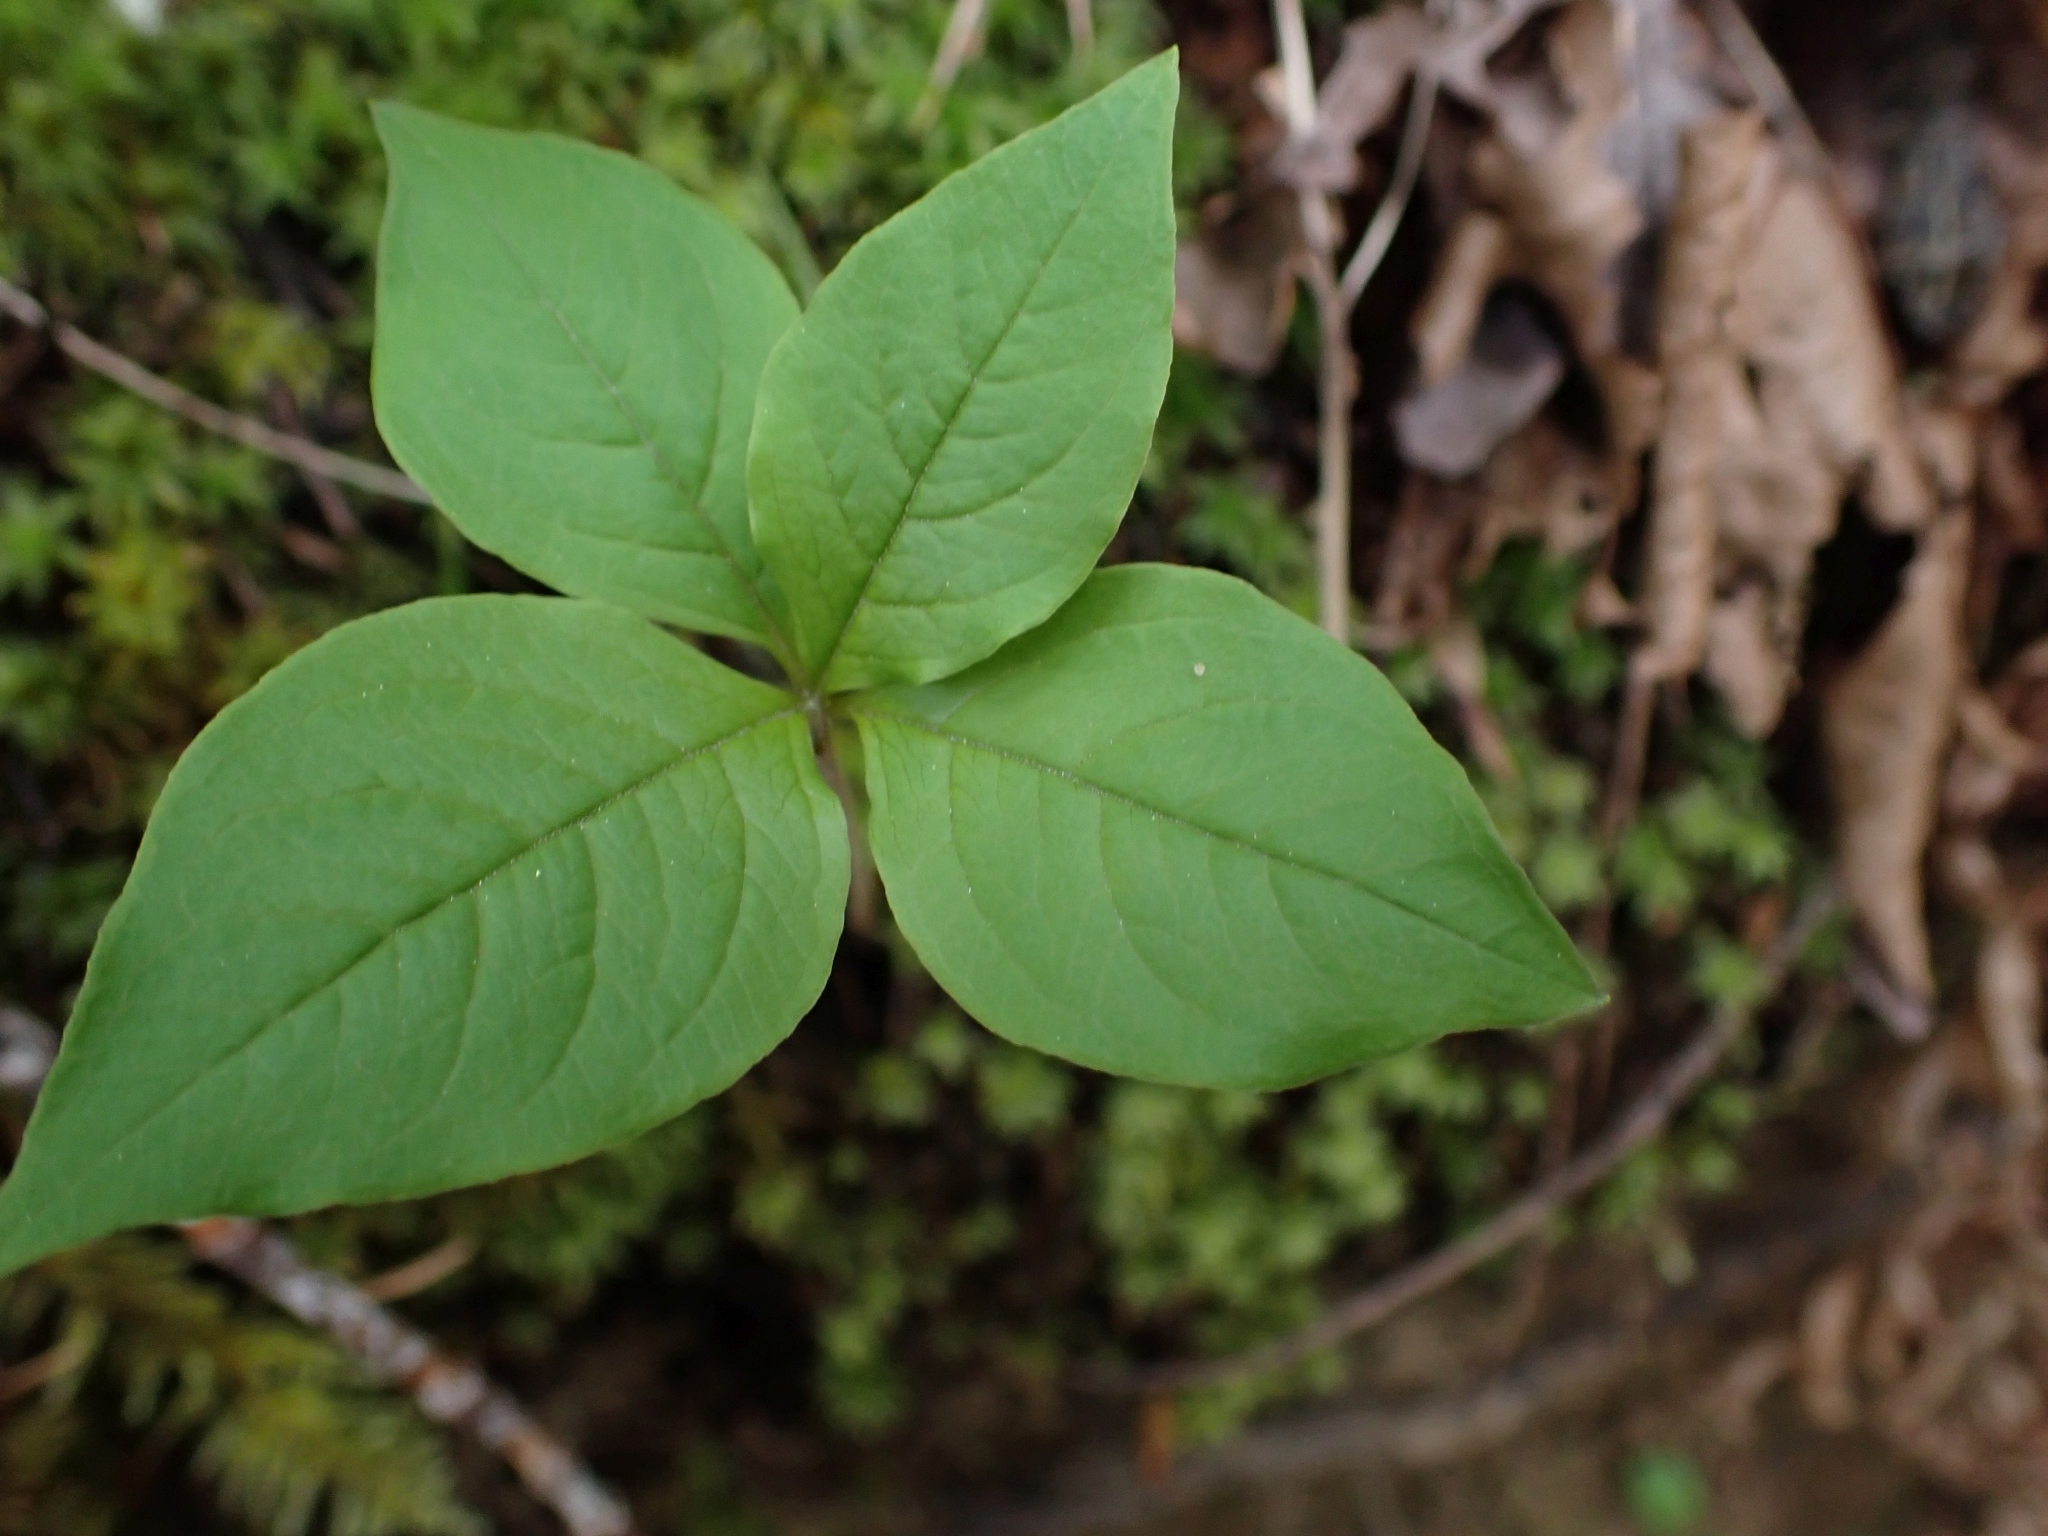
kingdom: Plantae
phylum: Tracheophyta
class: Magnoliopsida
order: Ericales
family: Primulaceae
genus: Lysimachia
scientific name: Lysimachia latifolia
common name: Pacific starflower
